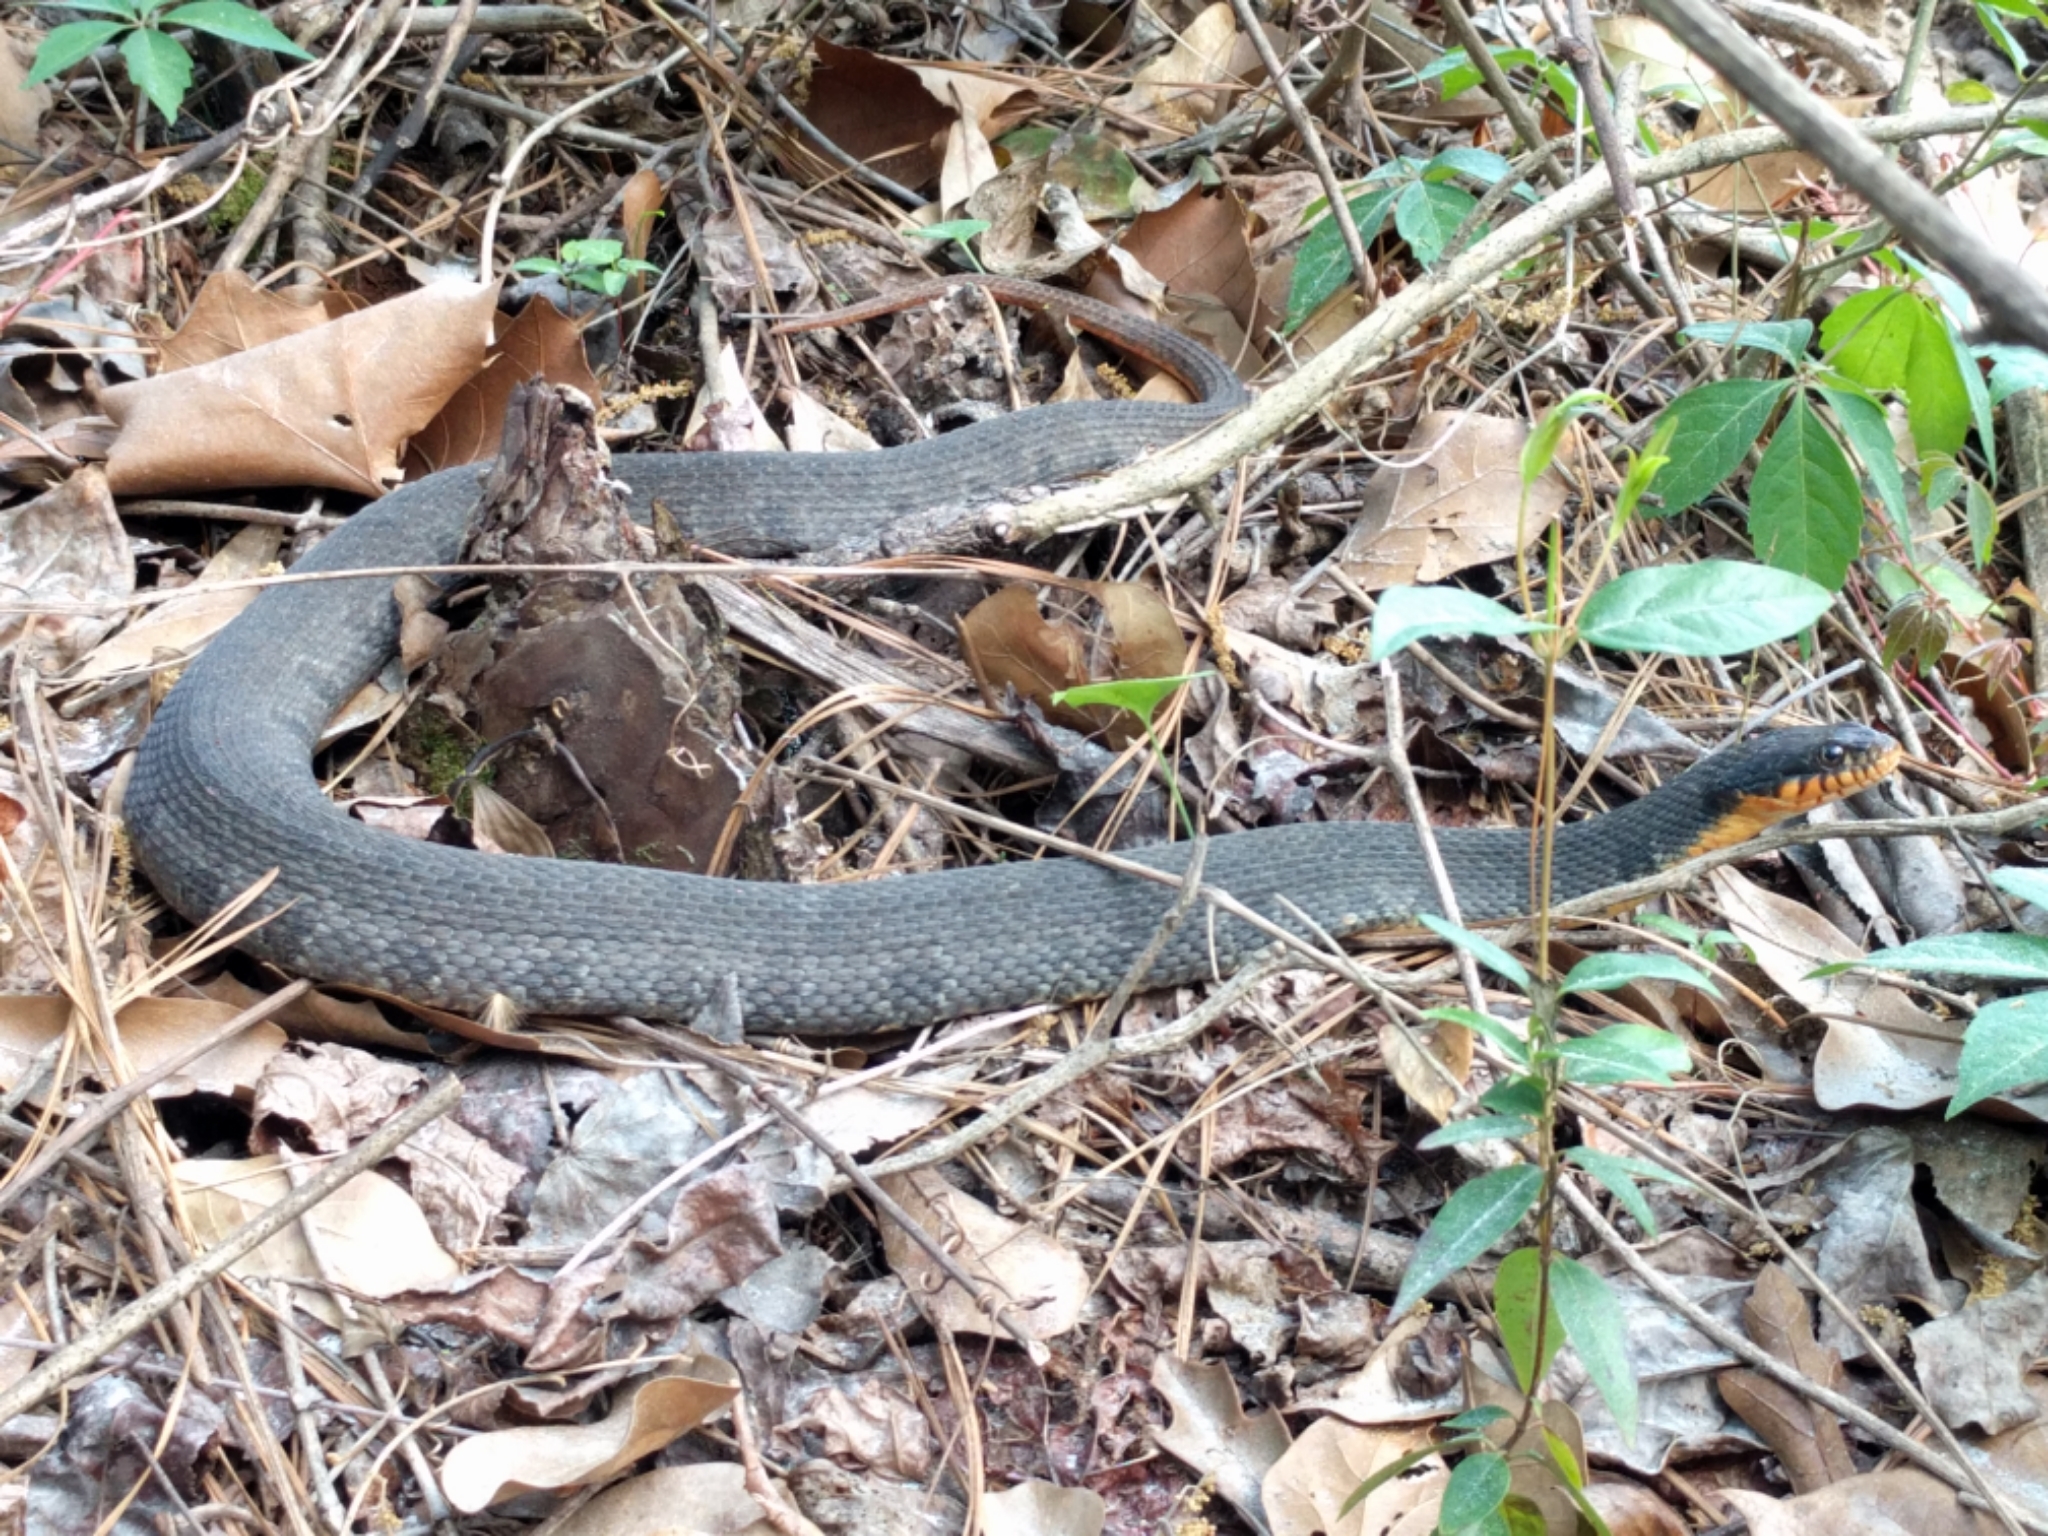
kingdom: Animalia
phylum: Chordata
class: Squamata
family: Colubridae
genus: Nerodia
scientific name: Nerodia erythrogaster
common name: Plainbelly water snake
